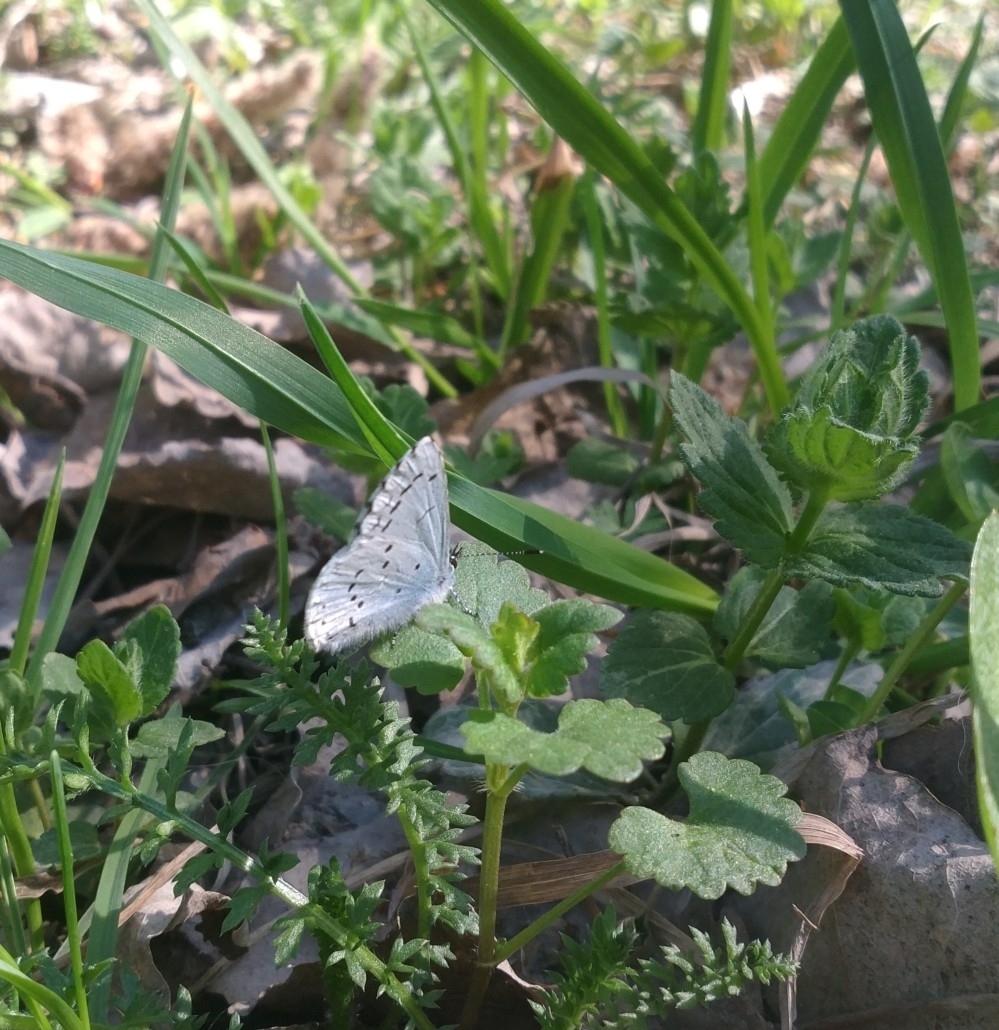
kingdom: Animalia
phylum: Arthropoda
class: Insecta
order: Lepidoptera
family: Lycaenidae
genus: Celastrina
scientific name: Celastrina argiolus
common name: Holly blue
